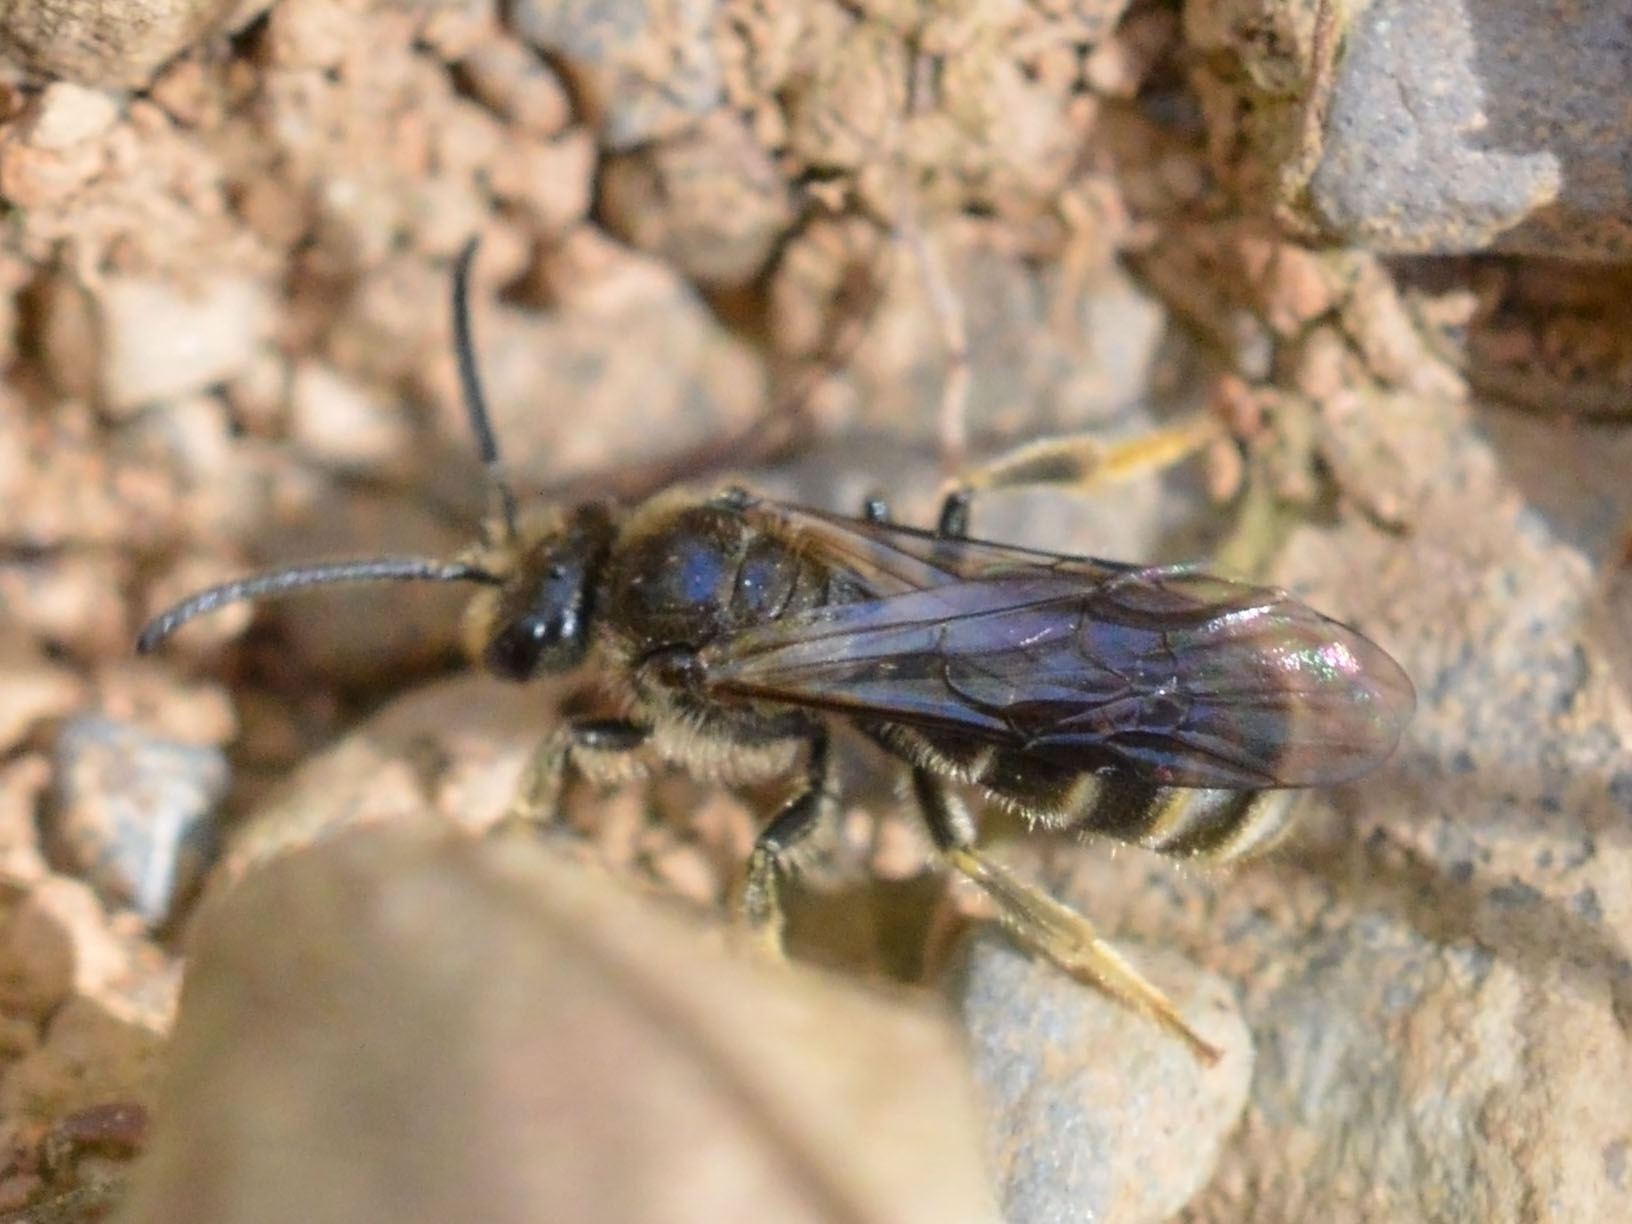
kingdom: Animalia
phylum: Arthropoda
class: Insecta
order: Hymenoptera
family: Halictidae
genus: Lasioglossum
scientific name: Lasioglossum marginatum
